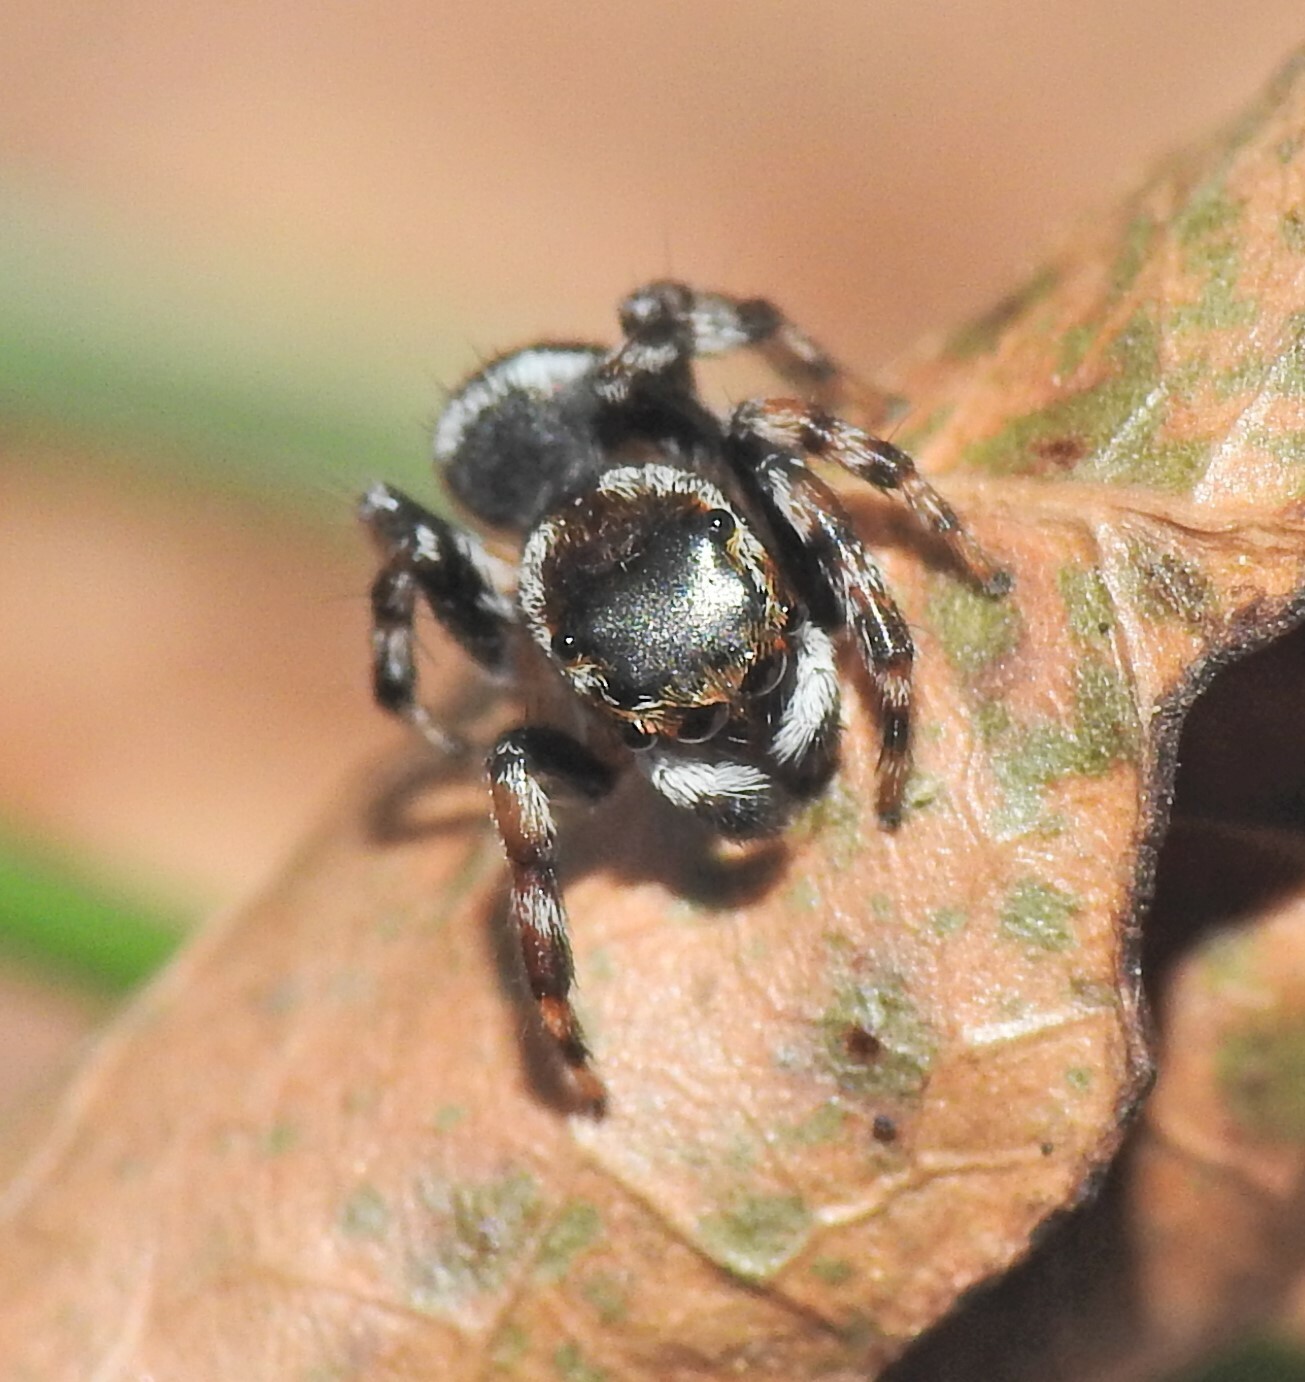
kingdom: Animalia
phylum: Arthropoda
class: Arachnida
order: Araneae
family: Salticidae
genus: Maratus
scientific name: Maratus scutulatus
